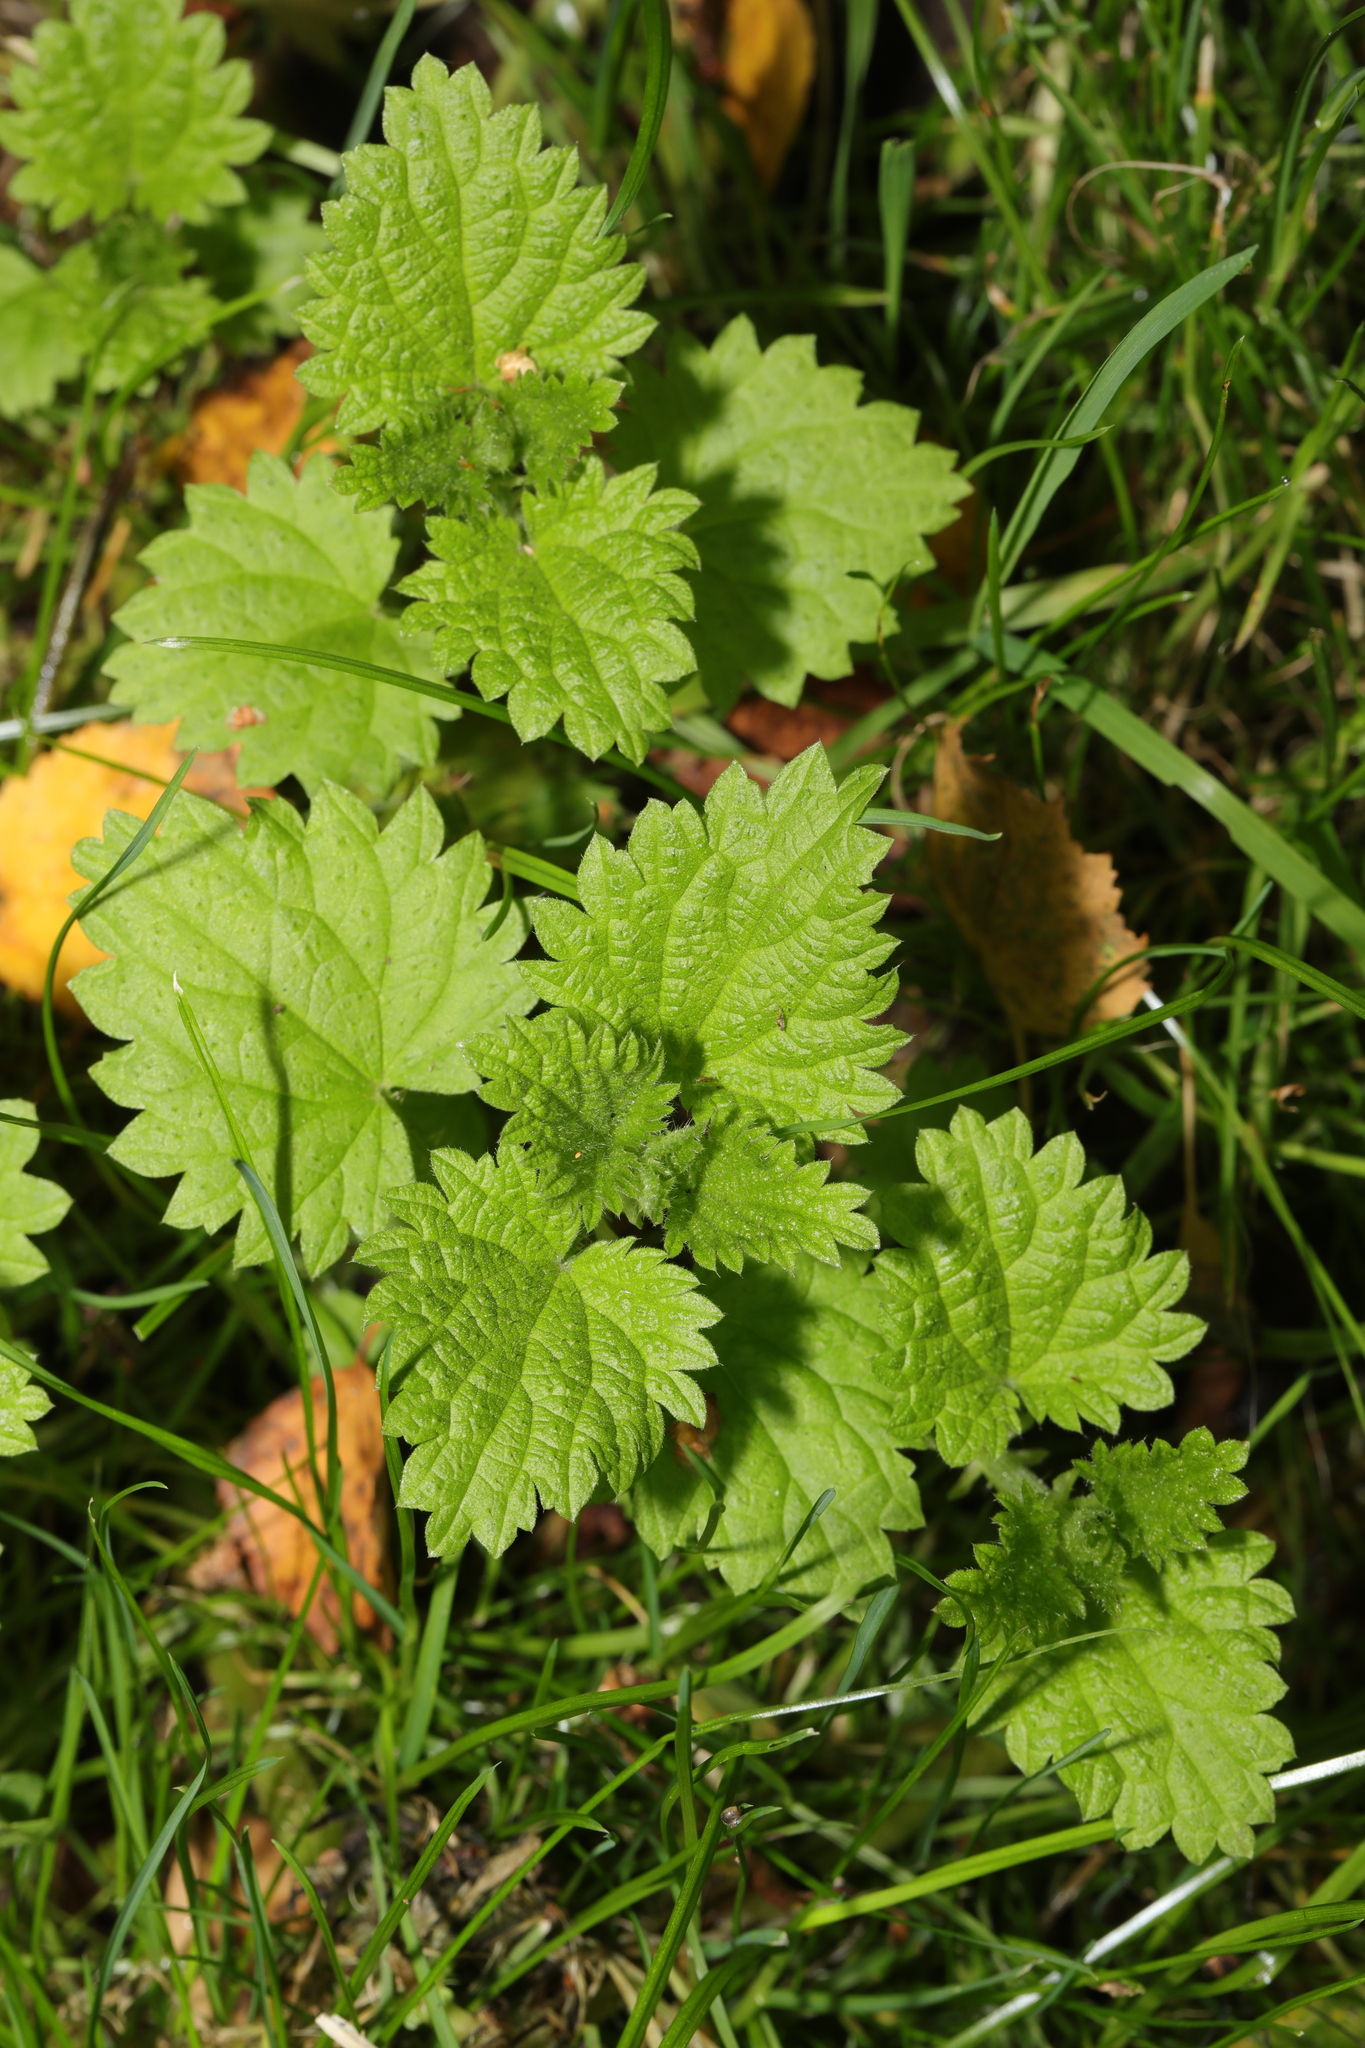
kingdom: Plantae
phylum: Tracheophyta
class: Magnoliopsida
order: Rosales
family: Urticaceae
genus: Urtica
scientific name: Urtica dioica
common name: Common nettle
